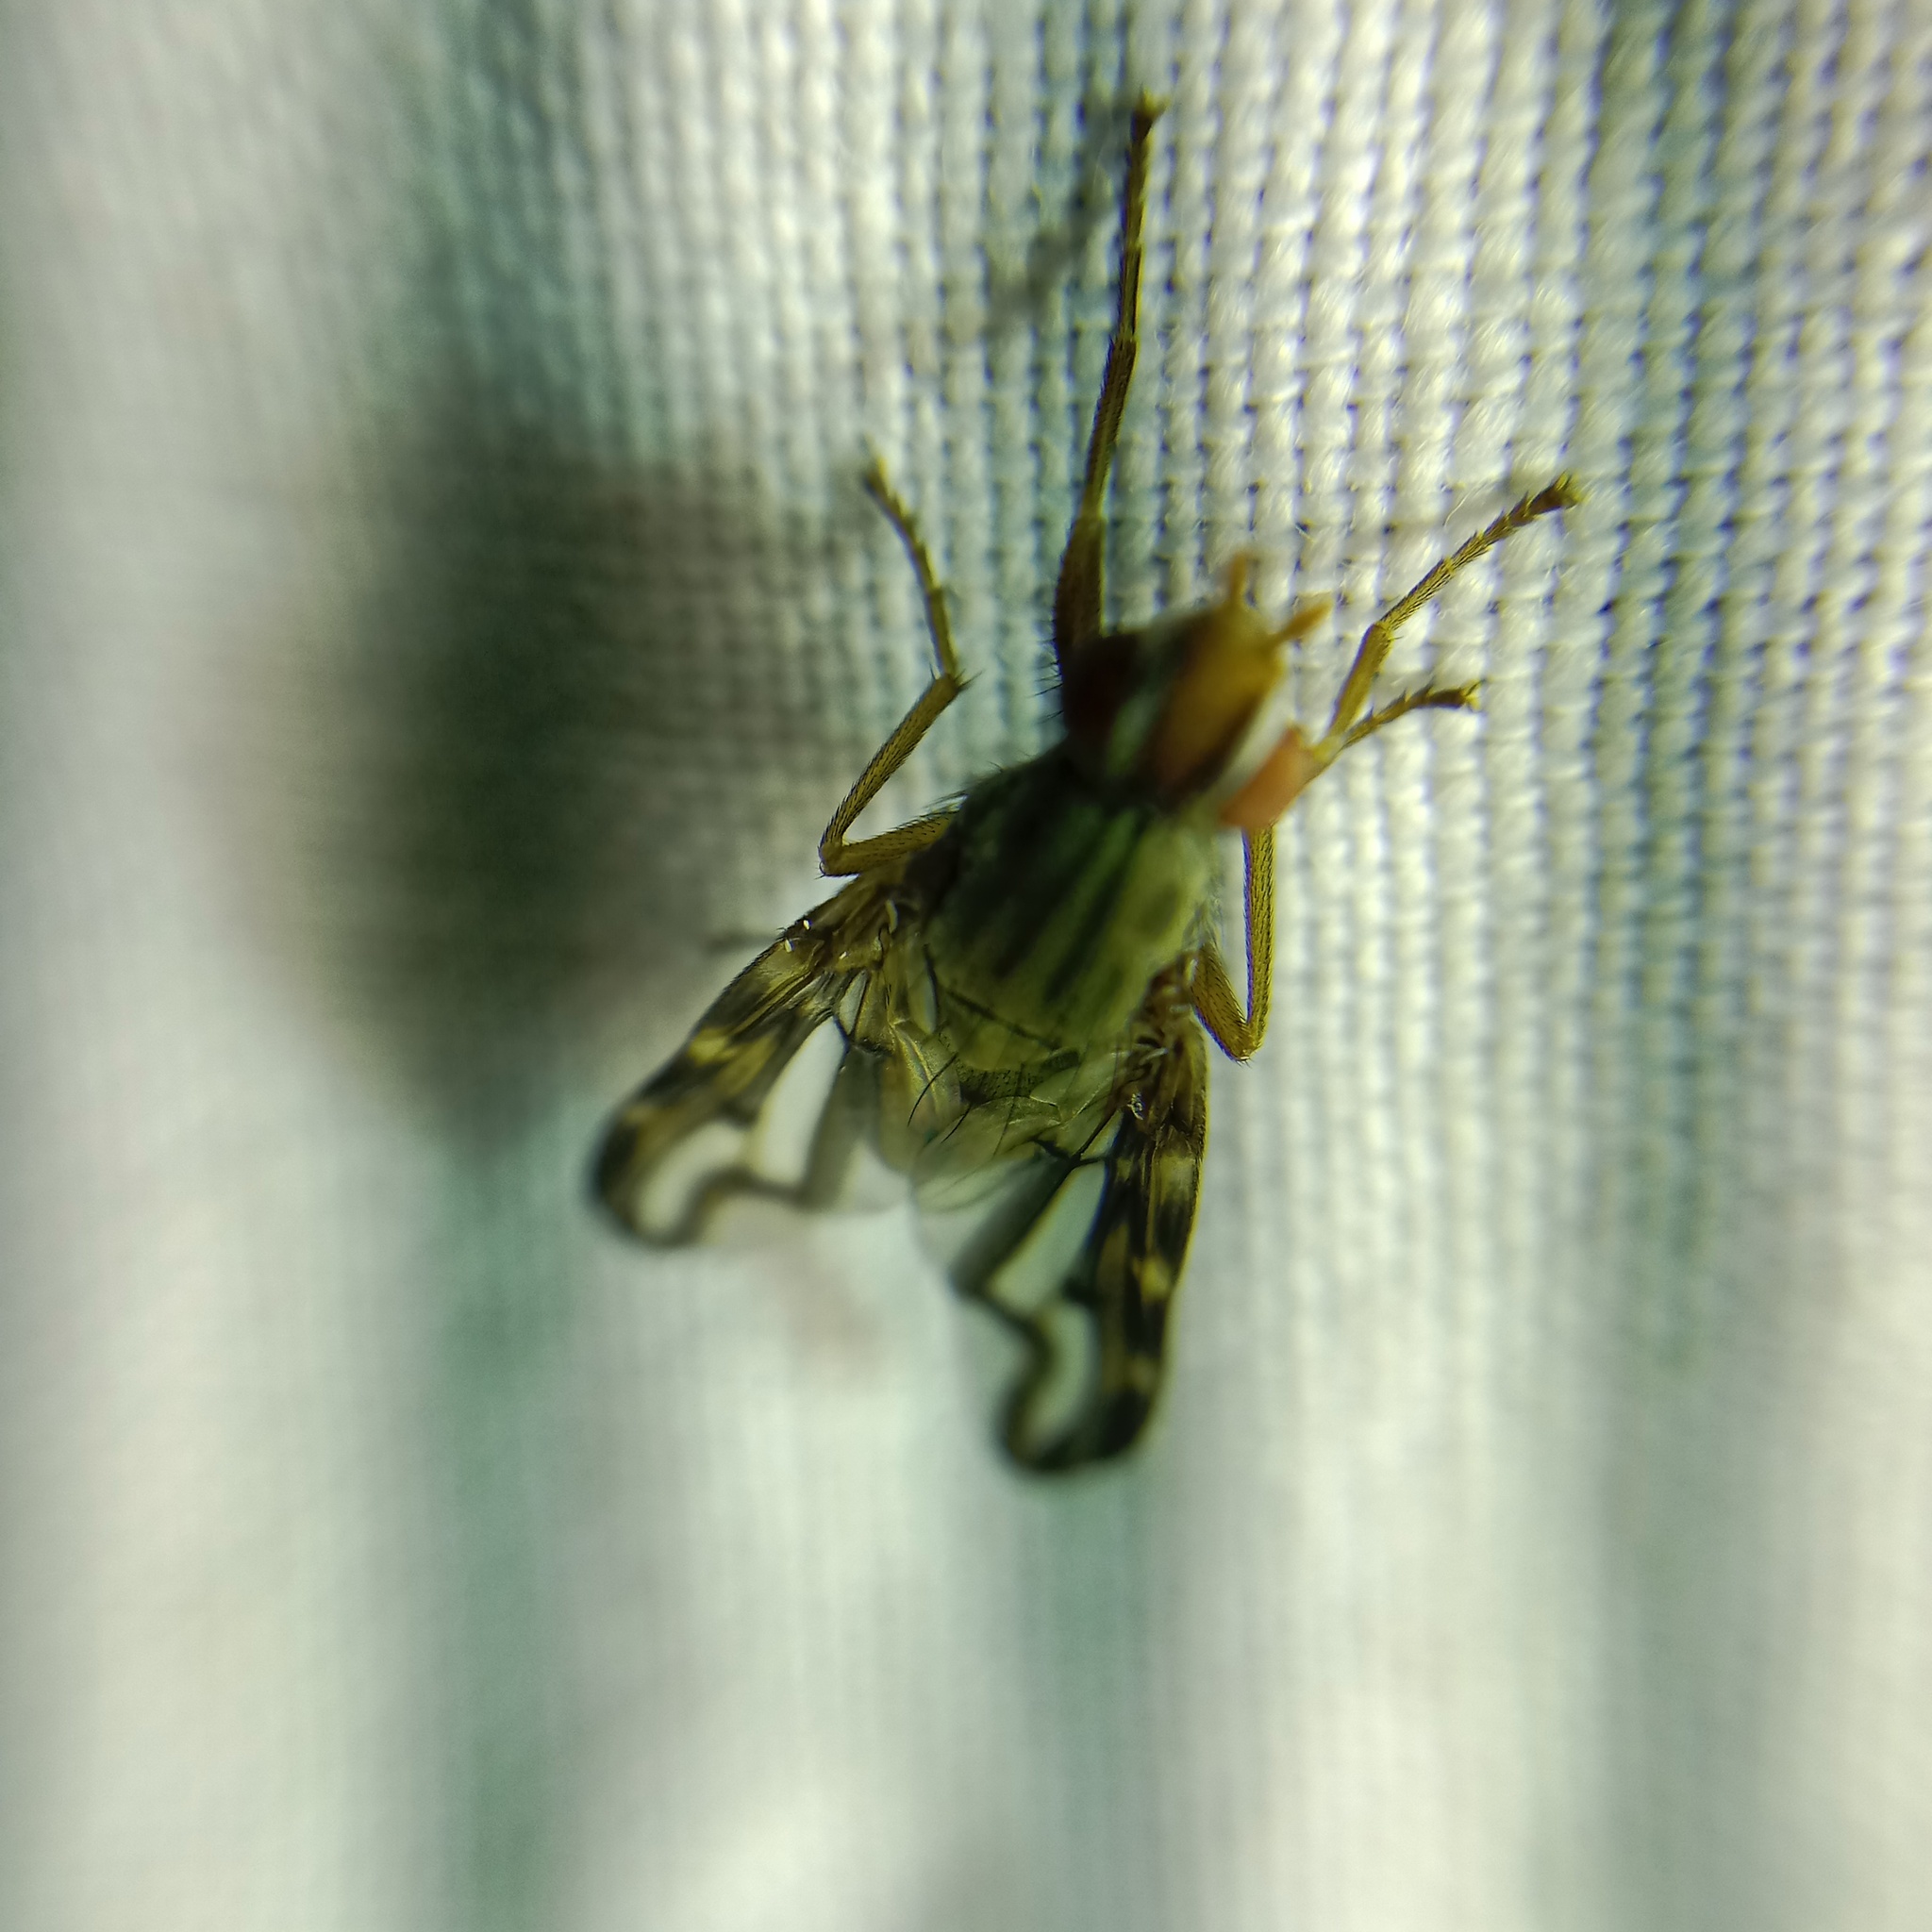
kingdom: Animalia
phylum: Arthropoda
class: Insecta
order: Diptera
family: Ulidiidae
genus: Otites
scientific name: Otites lamed
